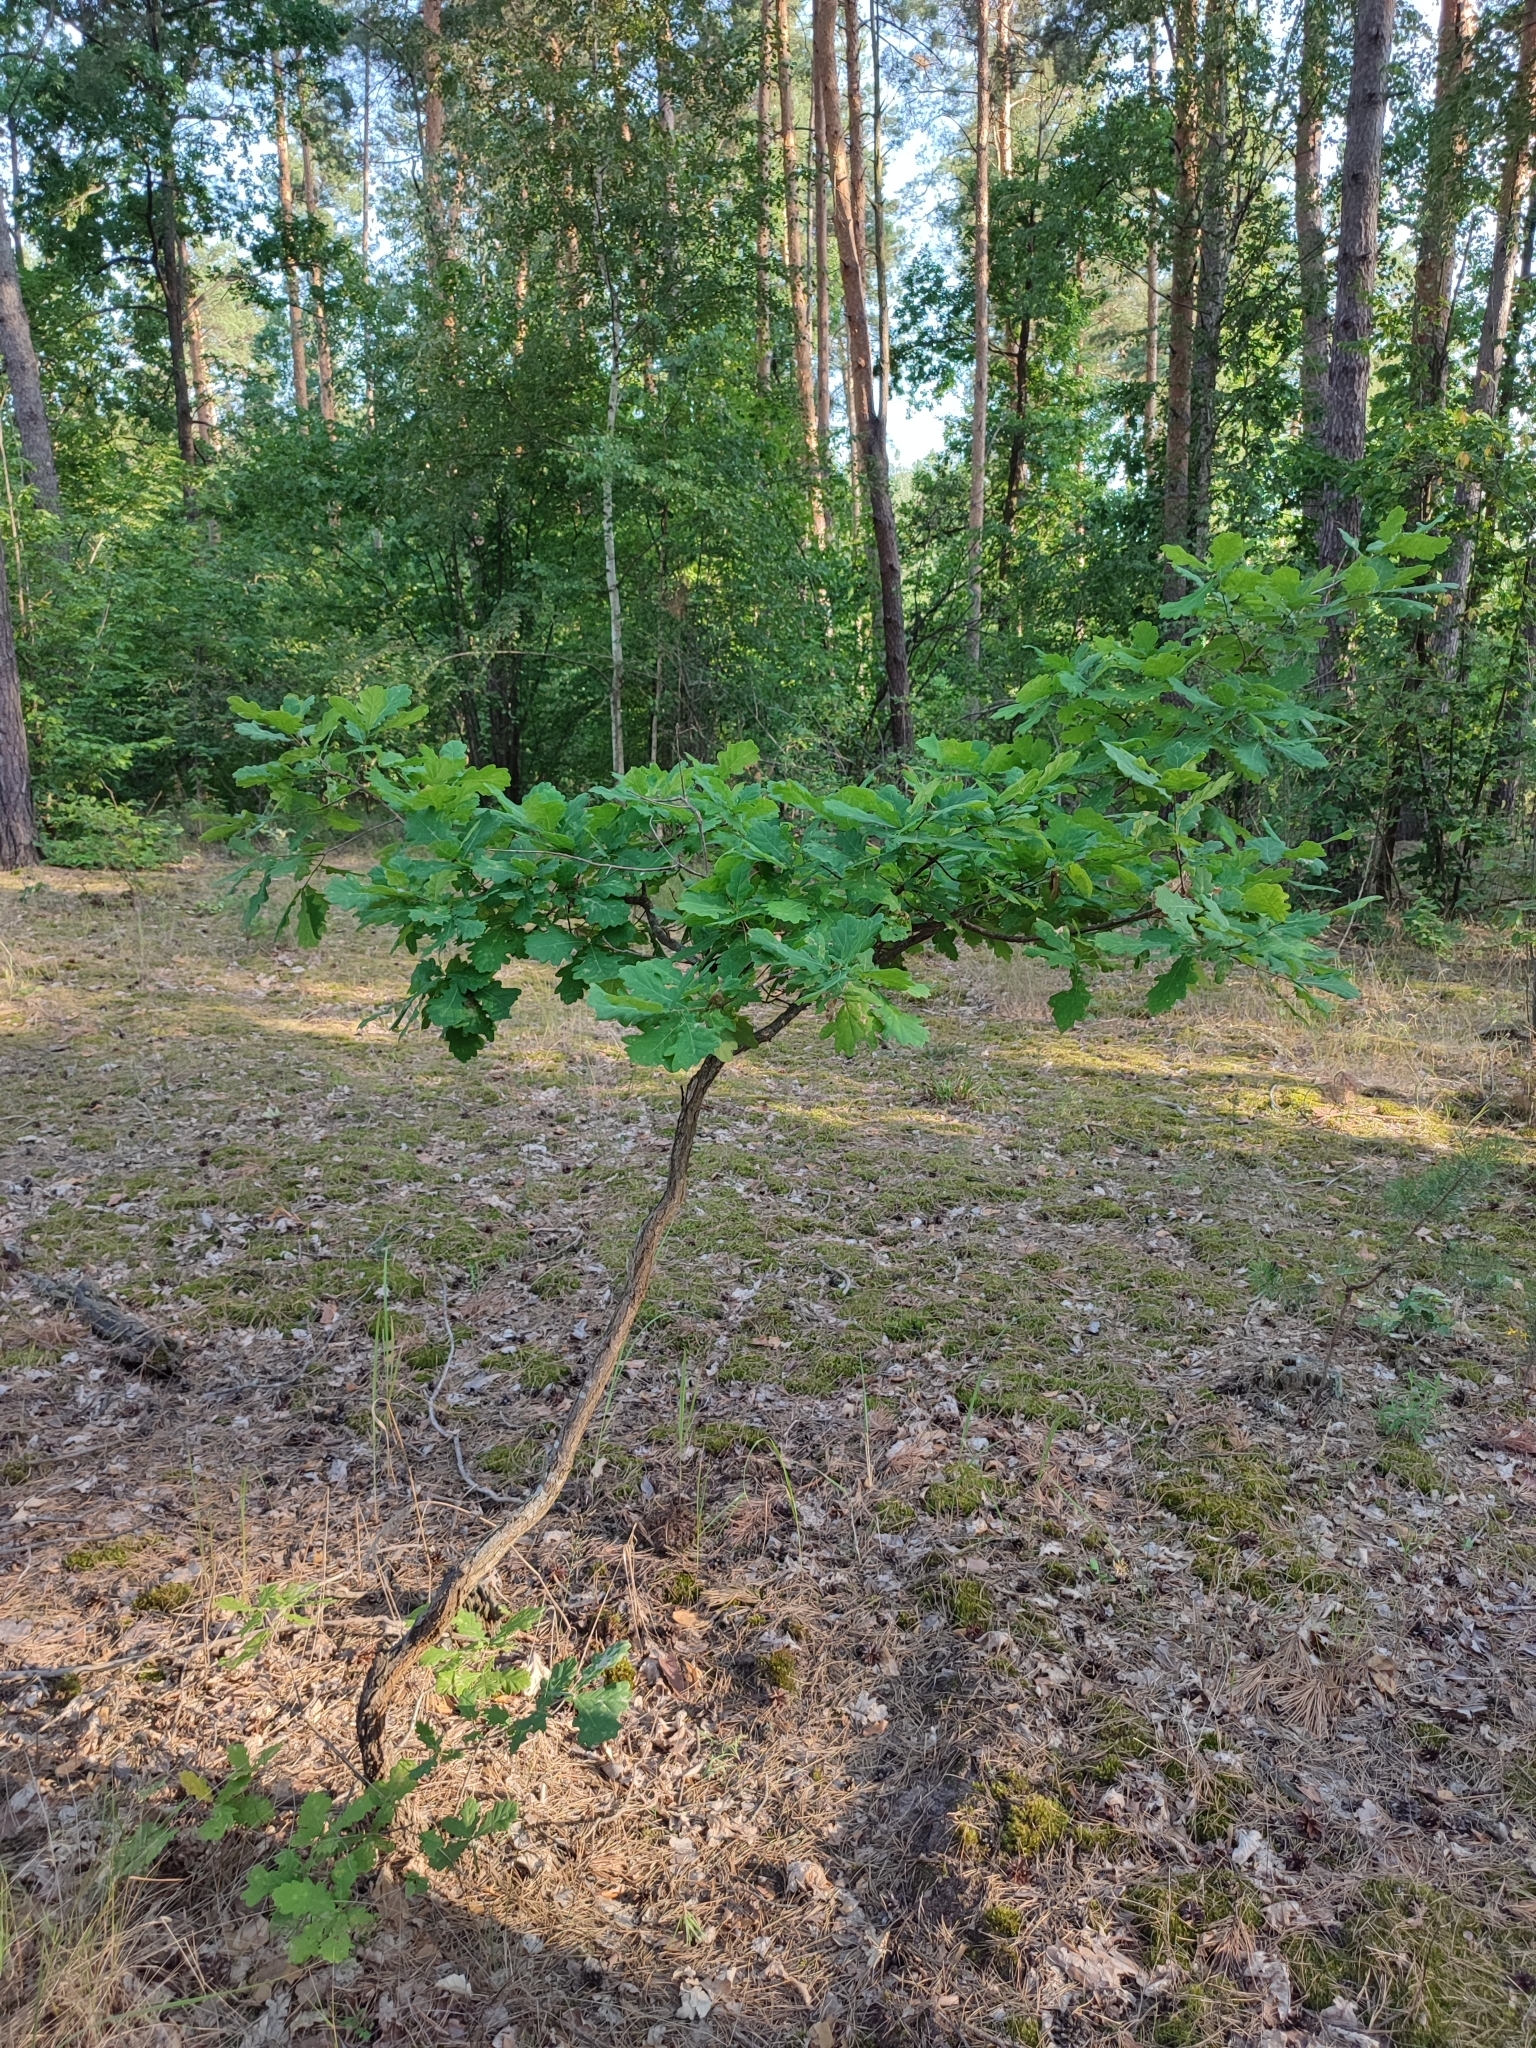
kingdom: Plantae
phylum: Tracheophyta
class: Magnoliopsida
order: Fagales
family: Fagaceae
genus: Quercus
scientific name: Quercus robur
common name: Pedunculate oak
